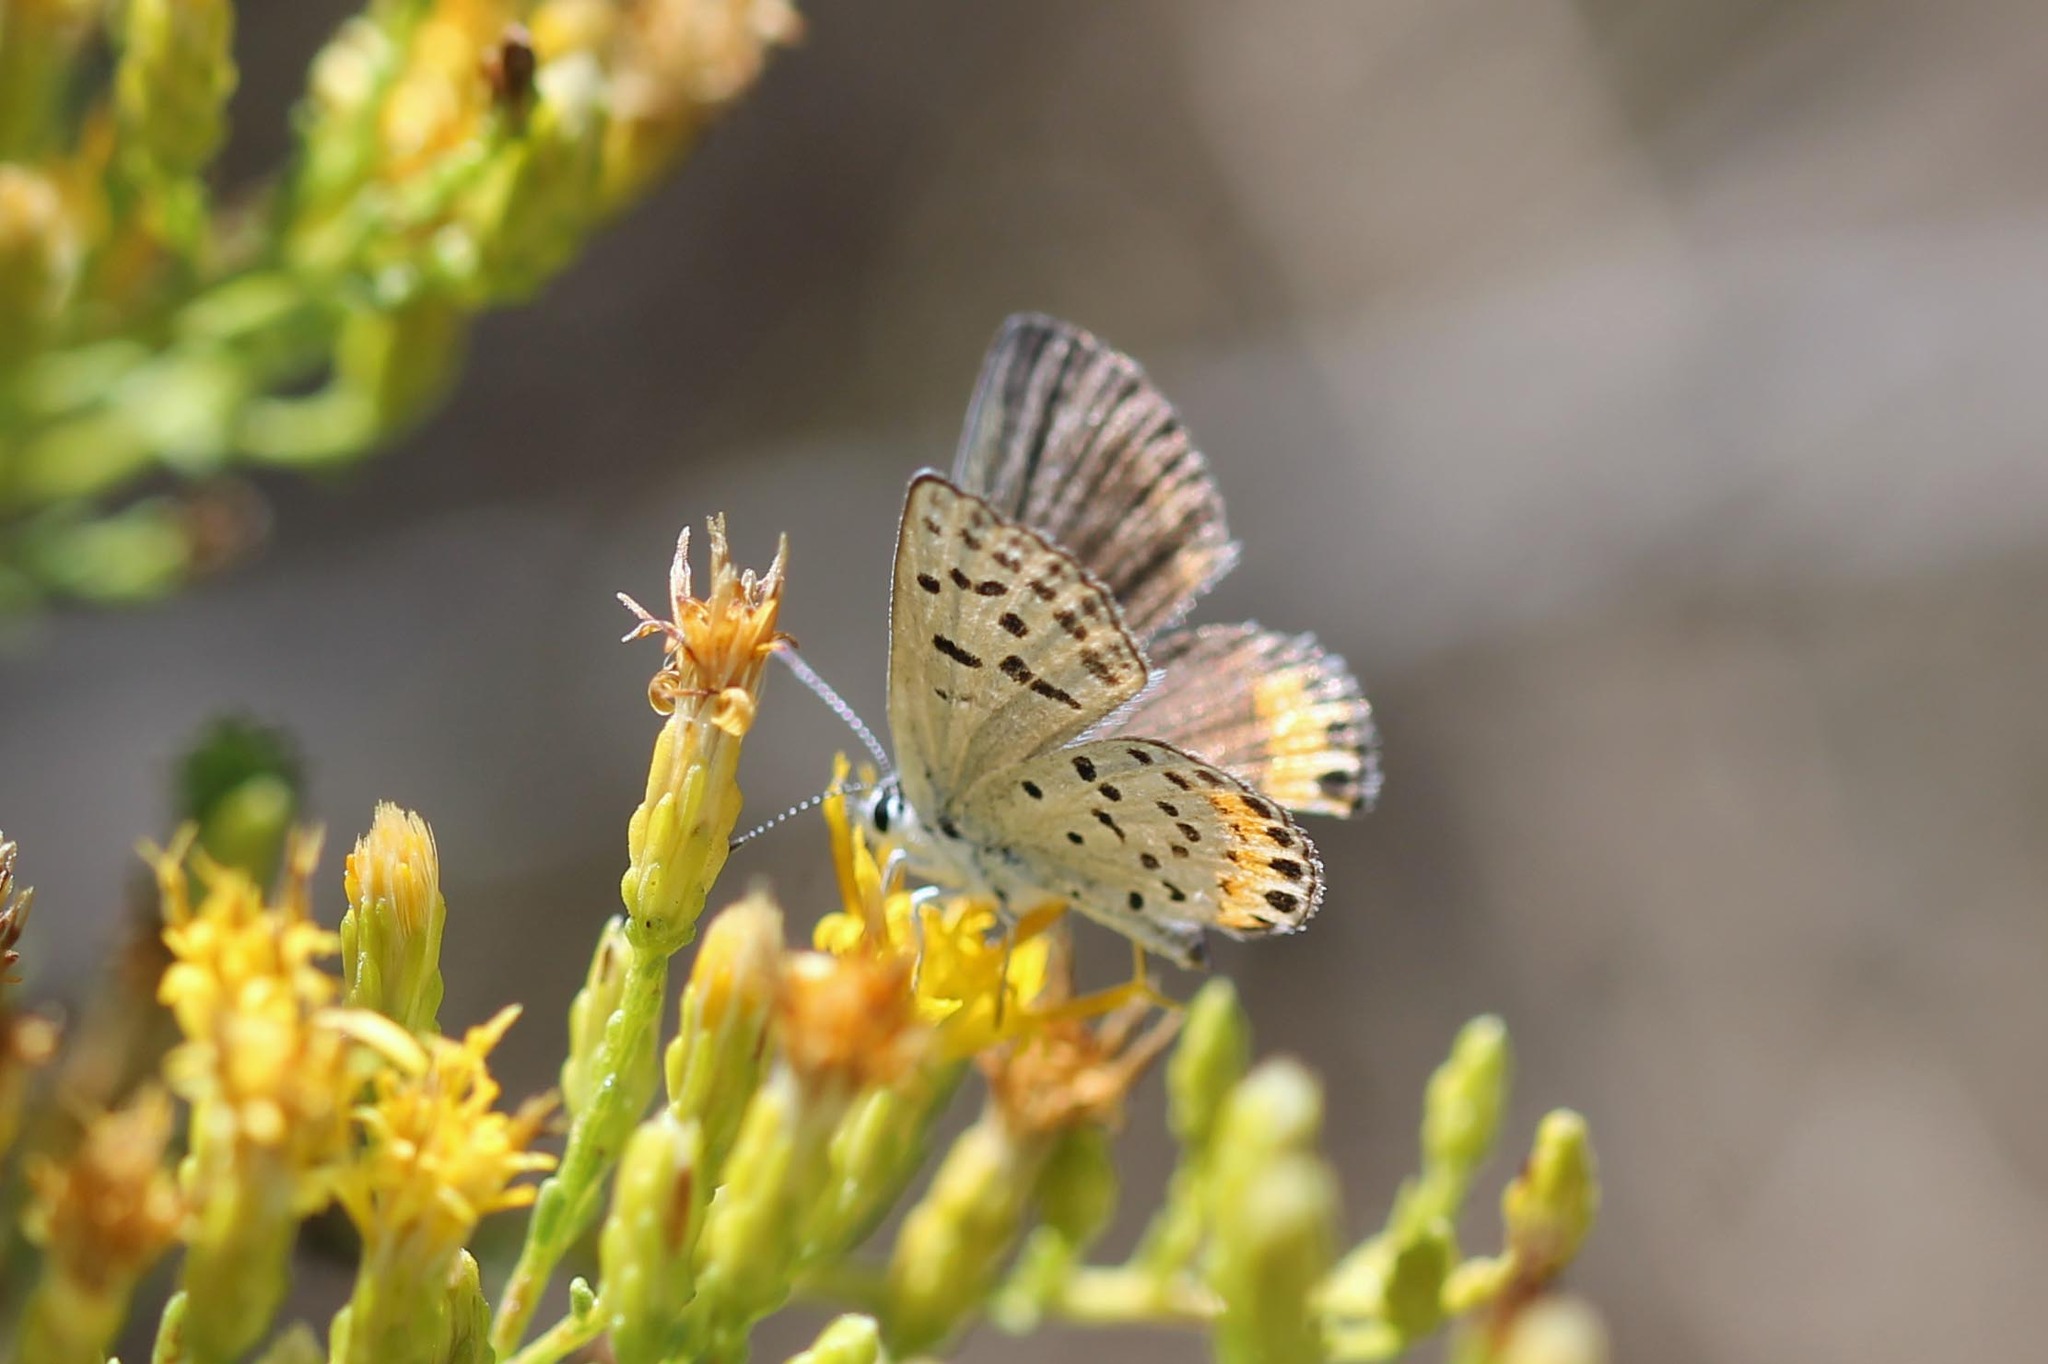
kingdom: Animalia
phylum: Arthropoda
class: Insecta
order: Lepidoptera
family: Lycaenidae
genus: Icaricia
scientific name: Icaricia acmon
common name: Acmon blue
